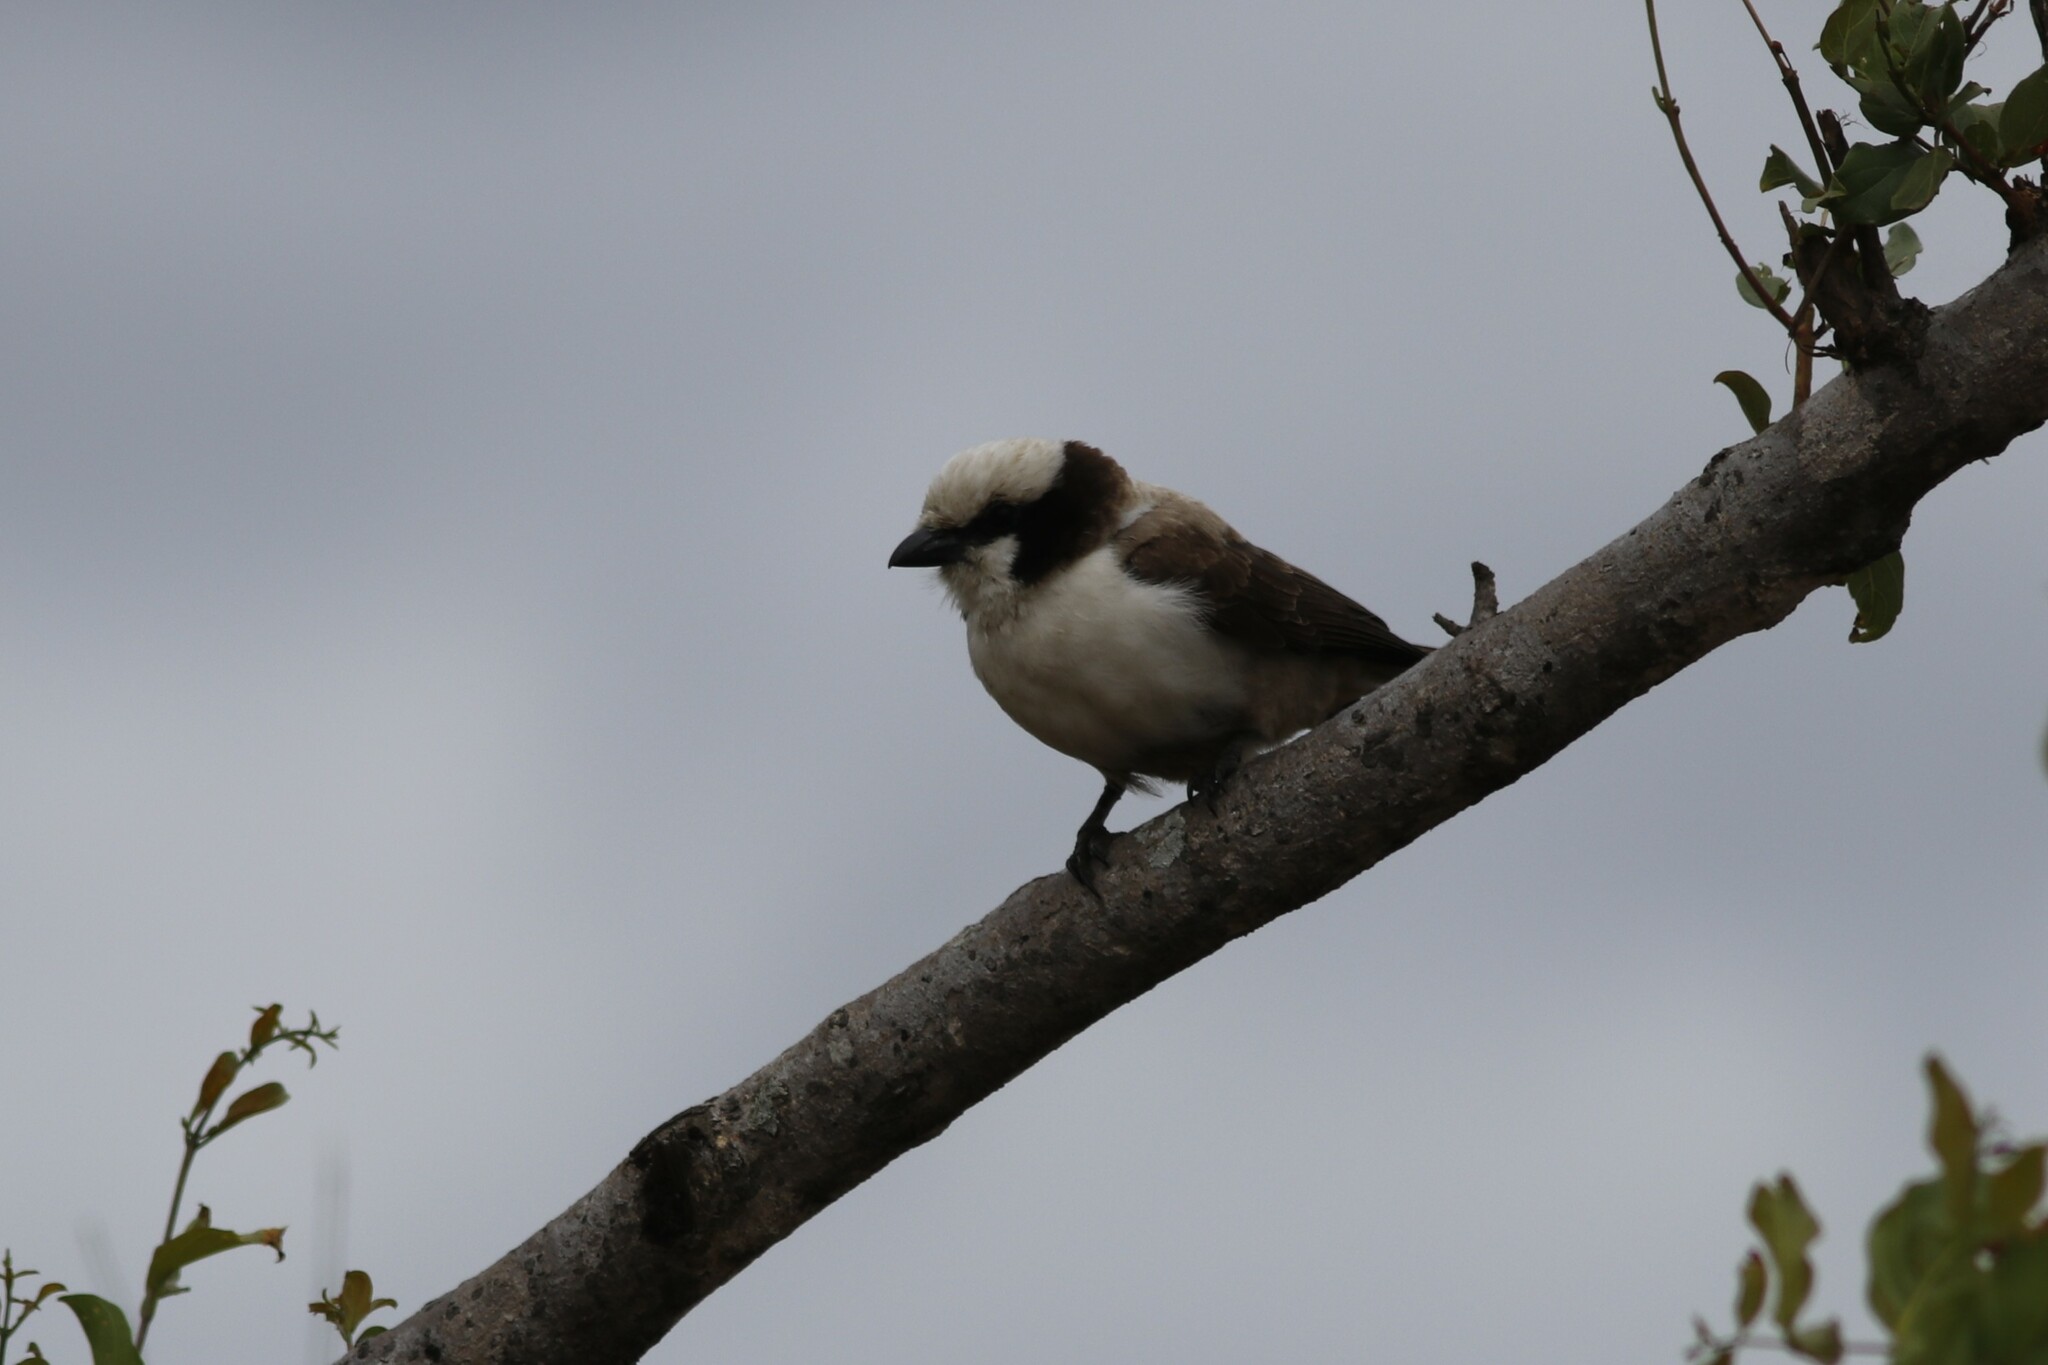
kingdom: Animalia
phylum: Chordata
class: Aves
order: Passeriformes
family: Laniidae
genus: Eurocephalus
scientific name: Eurocephalus anguitimens
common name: Southern white-crowned shrike
